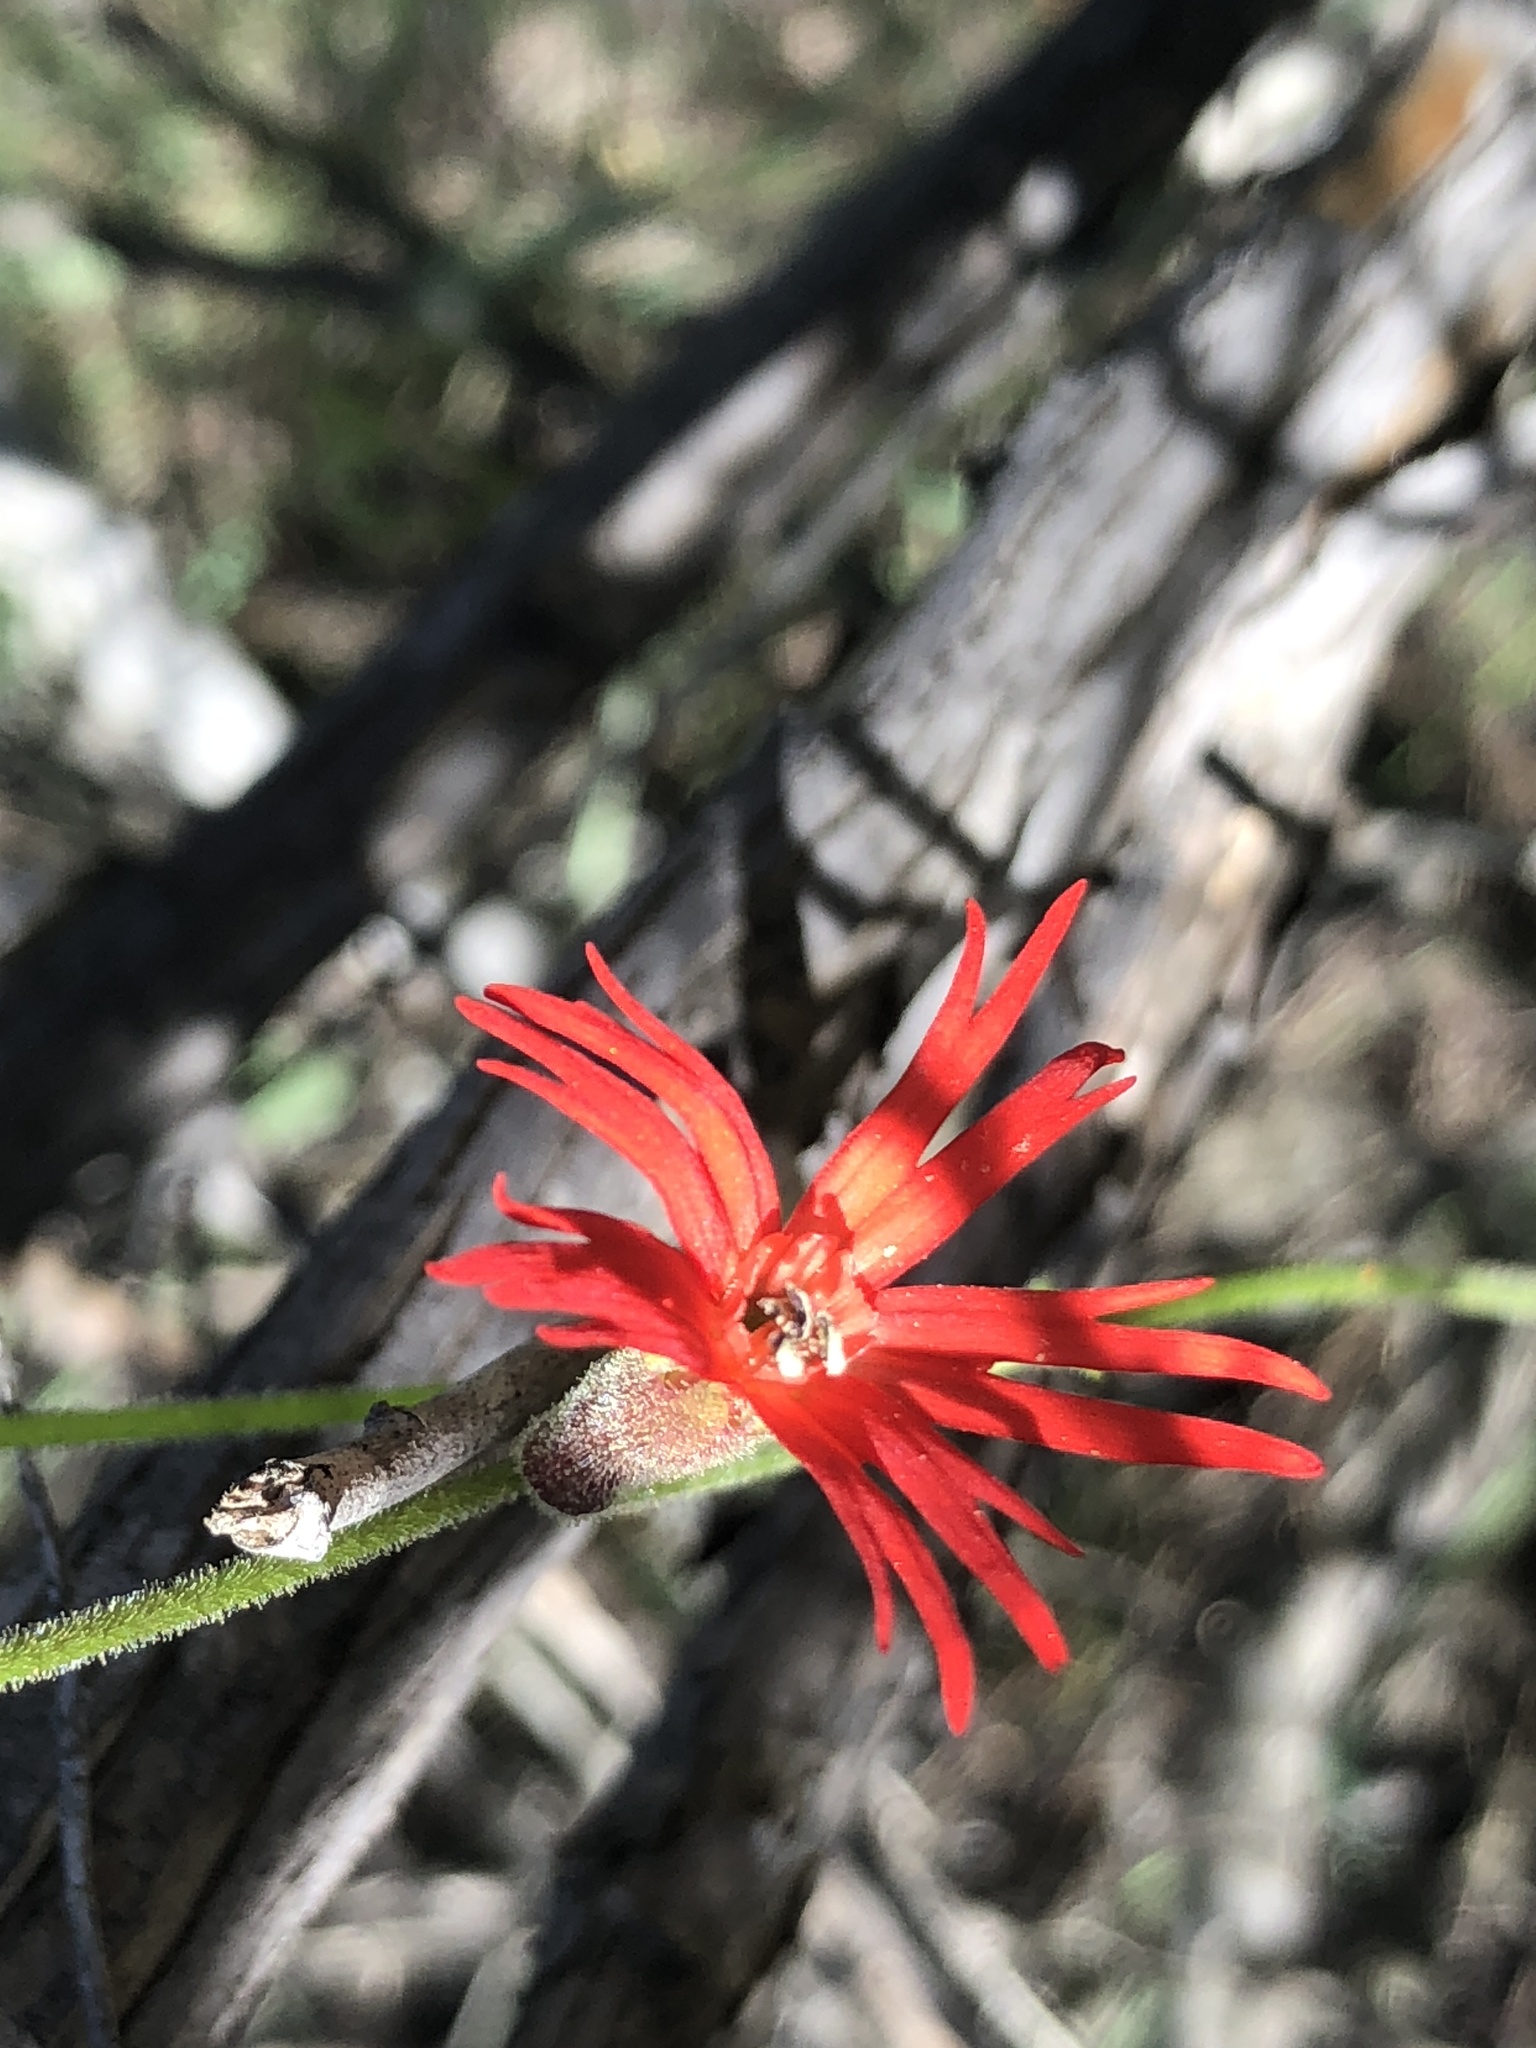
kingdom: Plantae
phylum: Tracheophyta
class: Magnoliopsida
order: Caryophyllales
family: Caryophyllaceae
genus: Silene
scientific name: Silene laciniata
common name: Indian-pink
